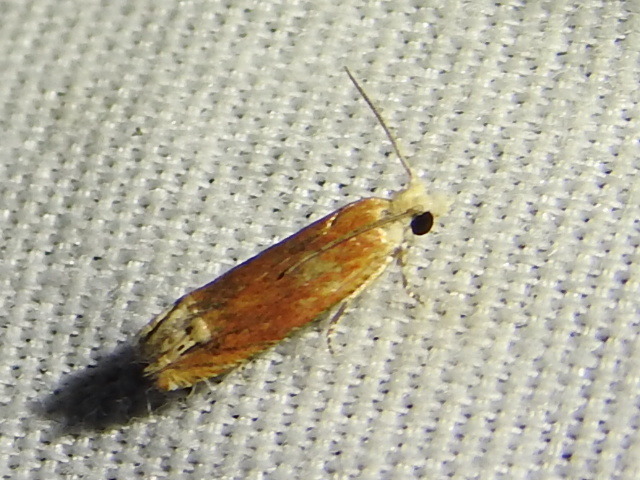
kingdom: Animalia
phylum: Arthropoda
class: Insecta
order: Lepidoptera
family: Tortricidae
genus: Eucosma
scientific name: Eucosma raracana
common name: Reddish eucosma moth
